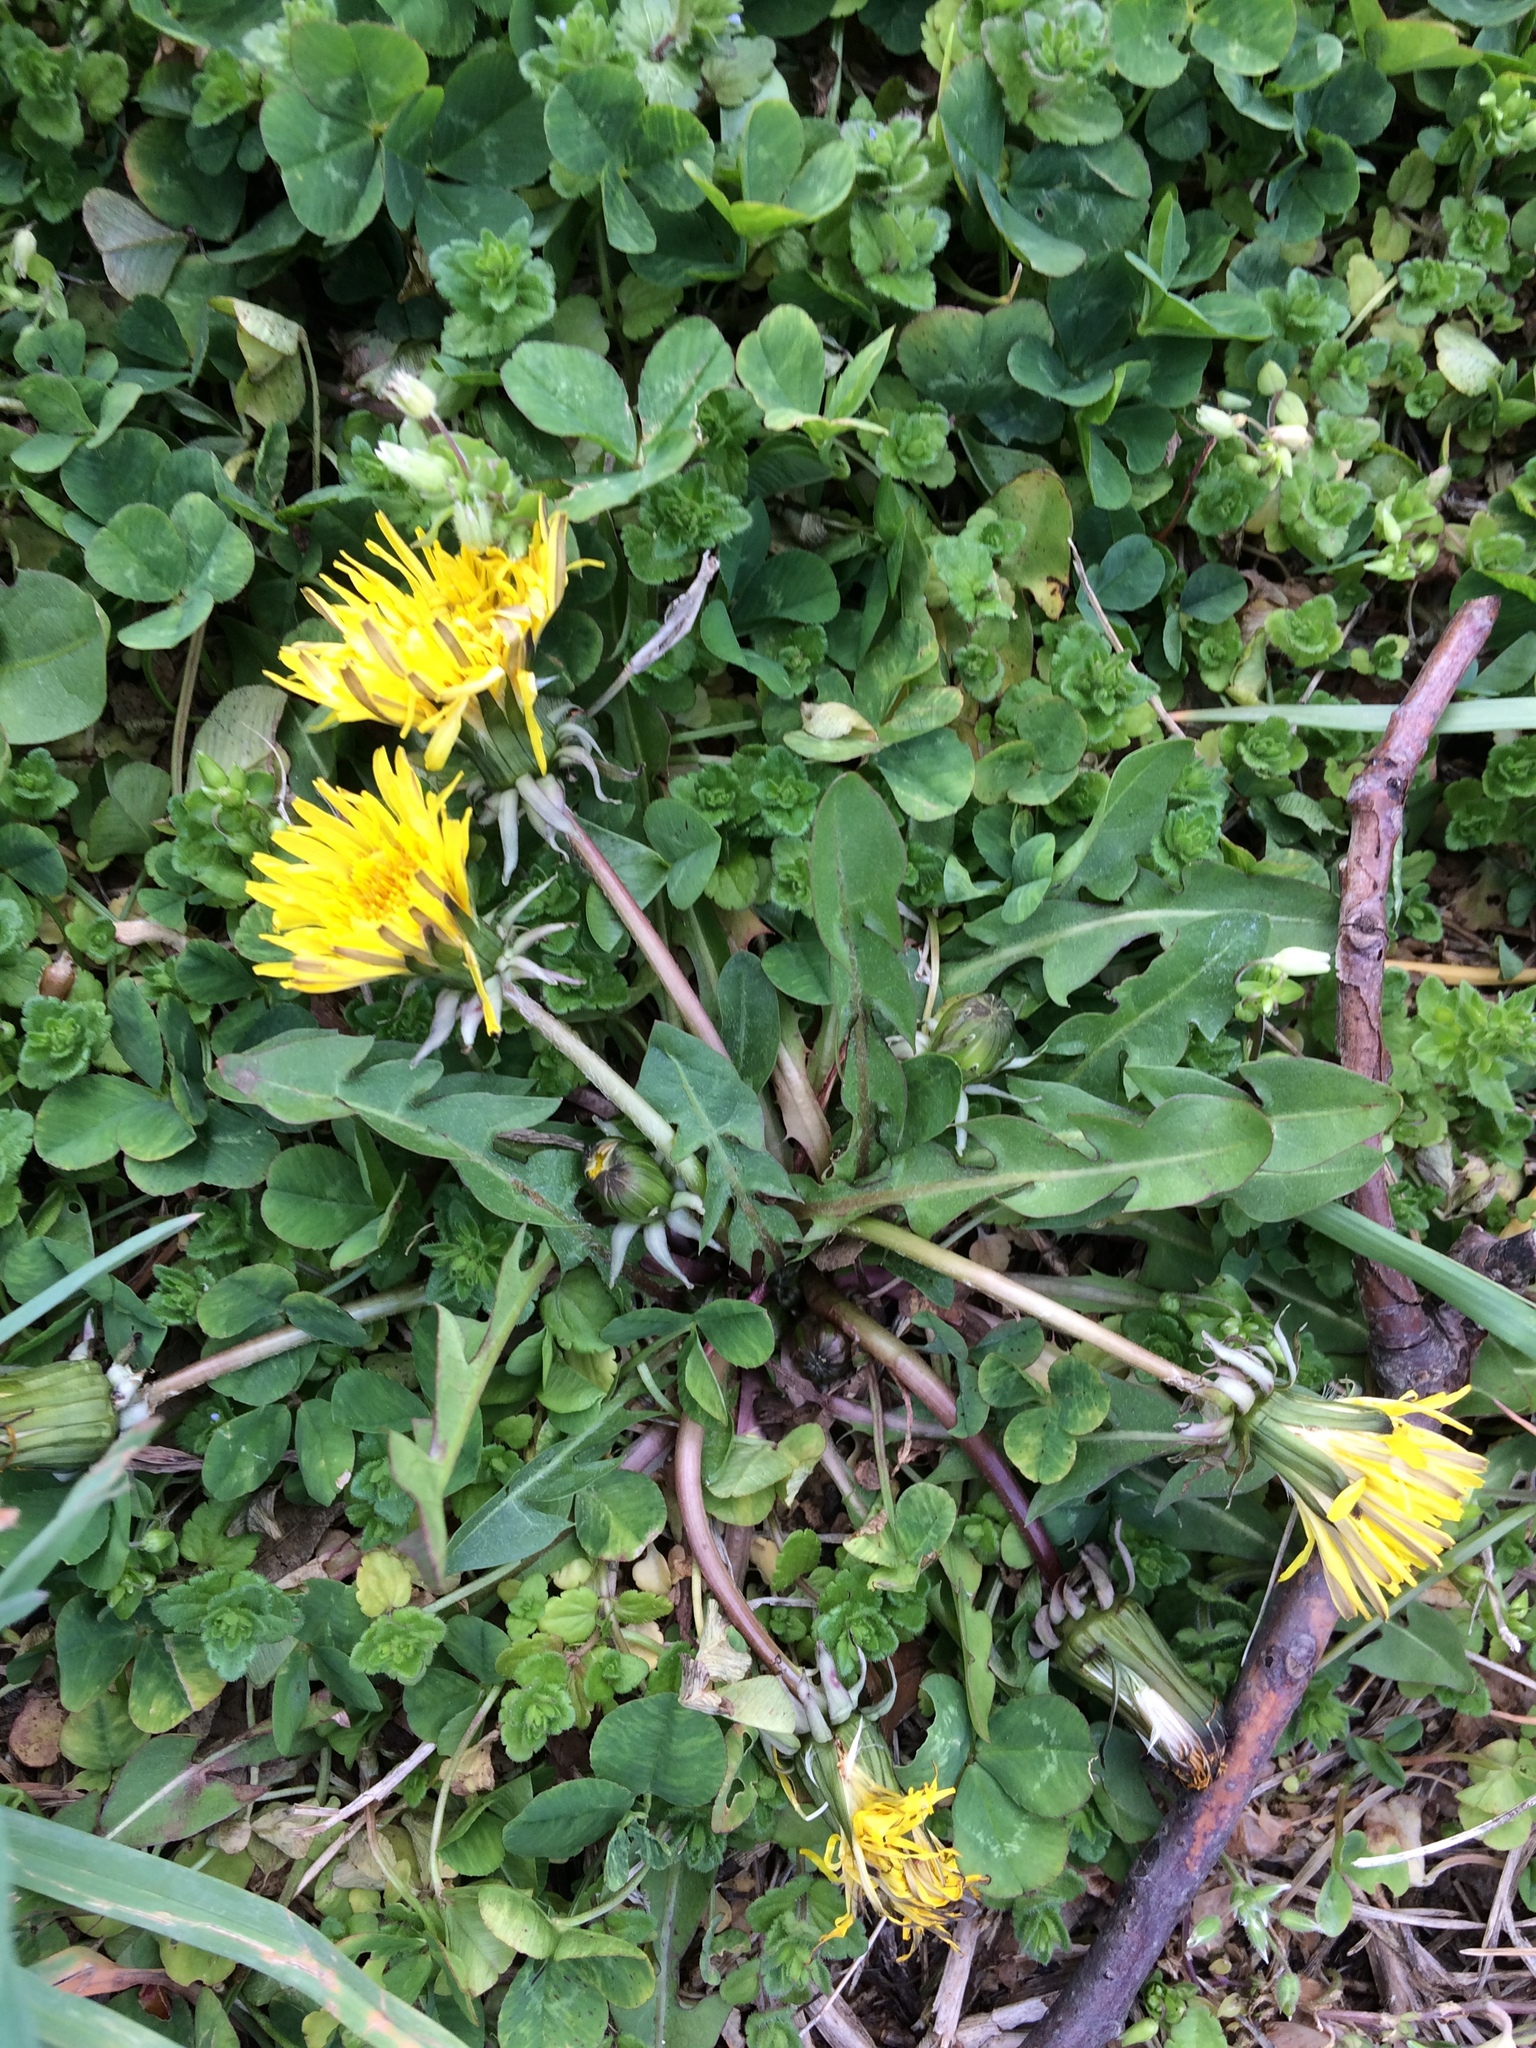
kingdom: Plantae
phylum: Tracheophyta
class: Magnoliopsida
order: Asterales
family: Asteraceae
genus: Taraxacum
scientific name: Taraxacum officinale
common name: Common dandelion
